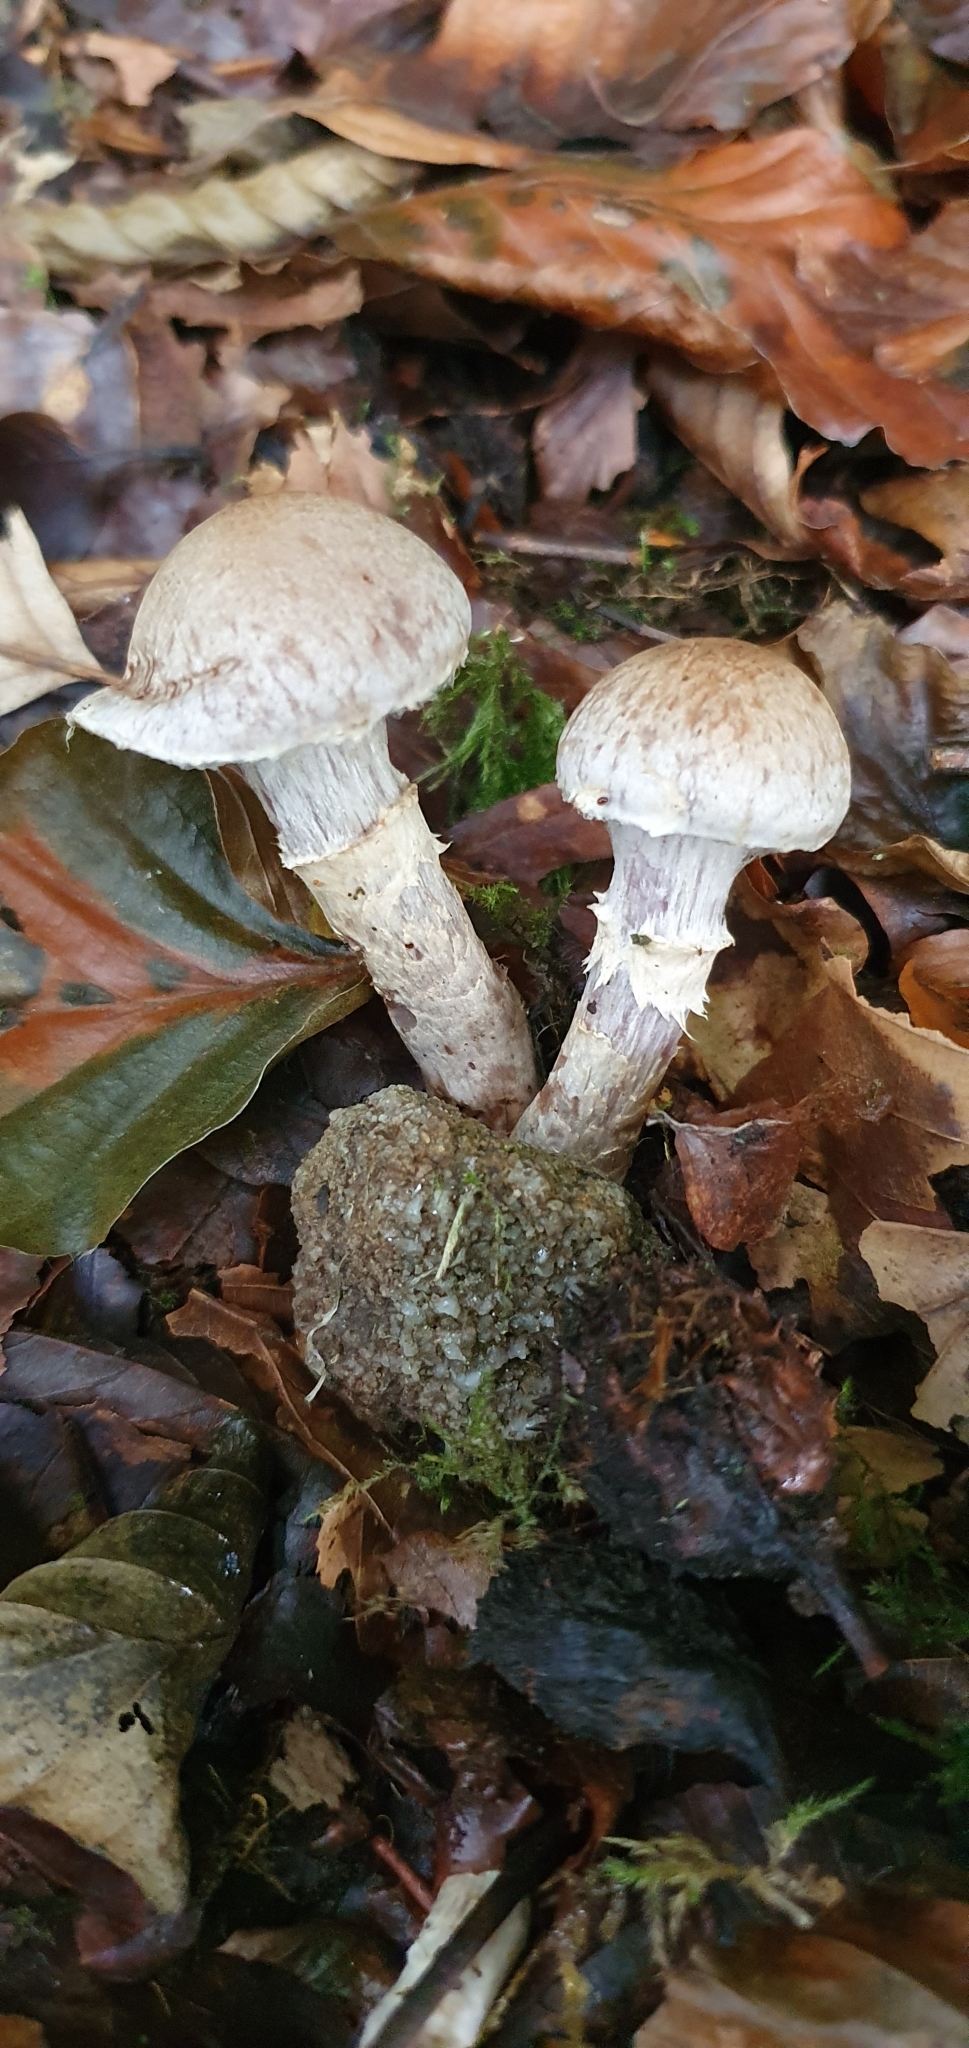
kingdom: Fungi
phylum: Basidiomycota
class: Agaricomycetes
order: Agaricales
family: Cortinariaceae
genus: Cortinarius
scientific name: Cortinarius torvus
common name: Stocking webcap
